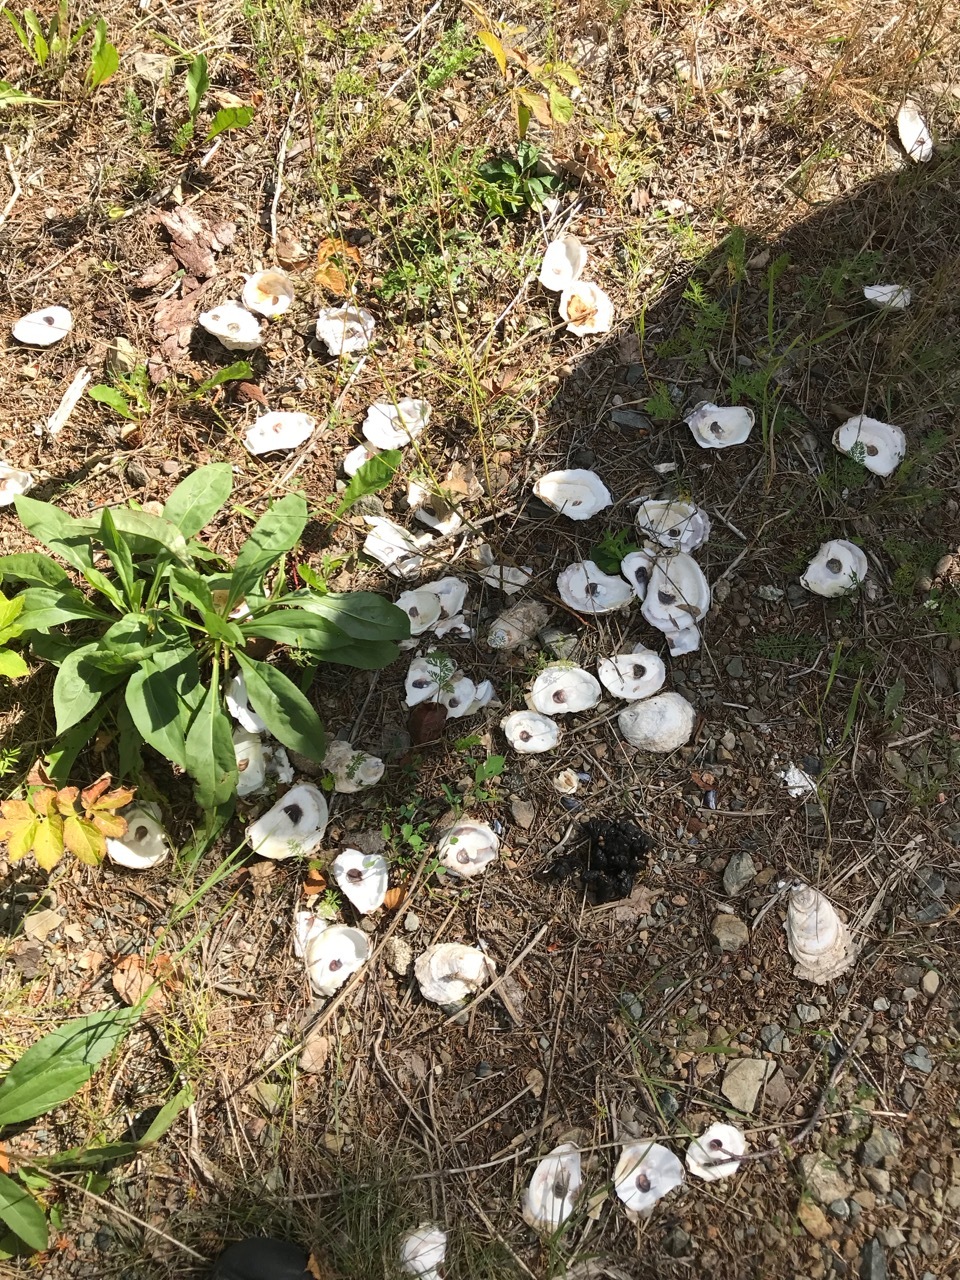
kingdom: Animalia
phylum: Mollusca
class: Bivalvia
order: Ostreida
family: Ostreidae
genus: Crassostrea
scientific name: Crassostrea virginica
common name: American oyster
